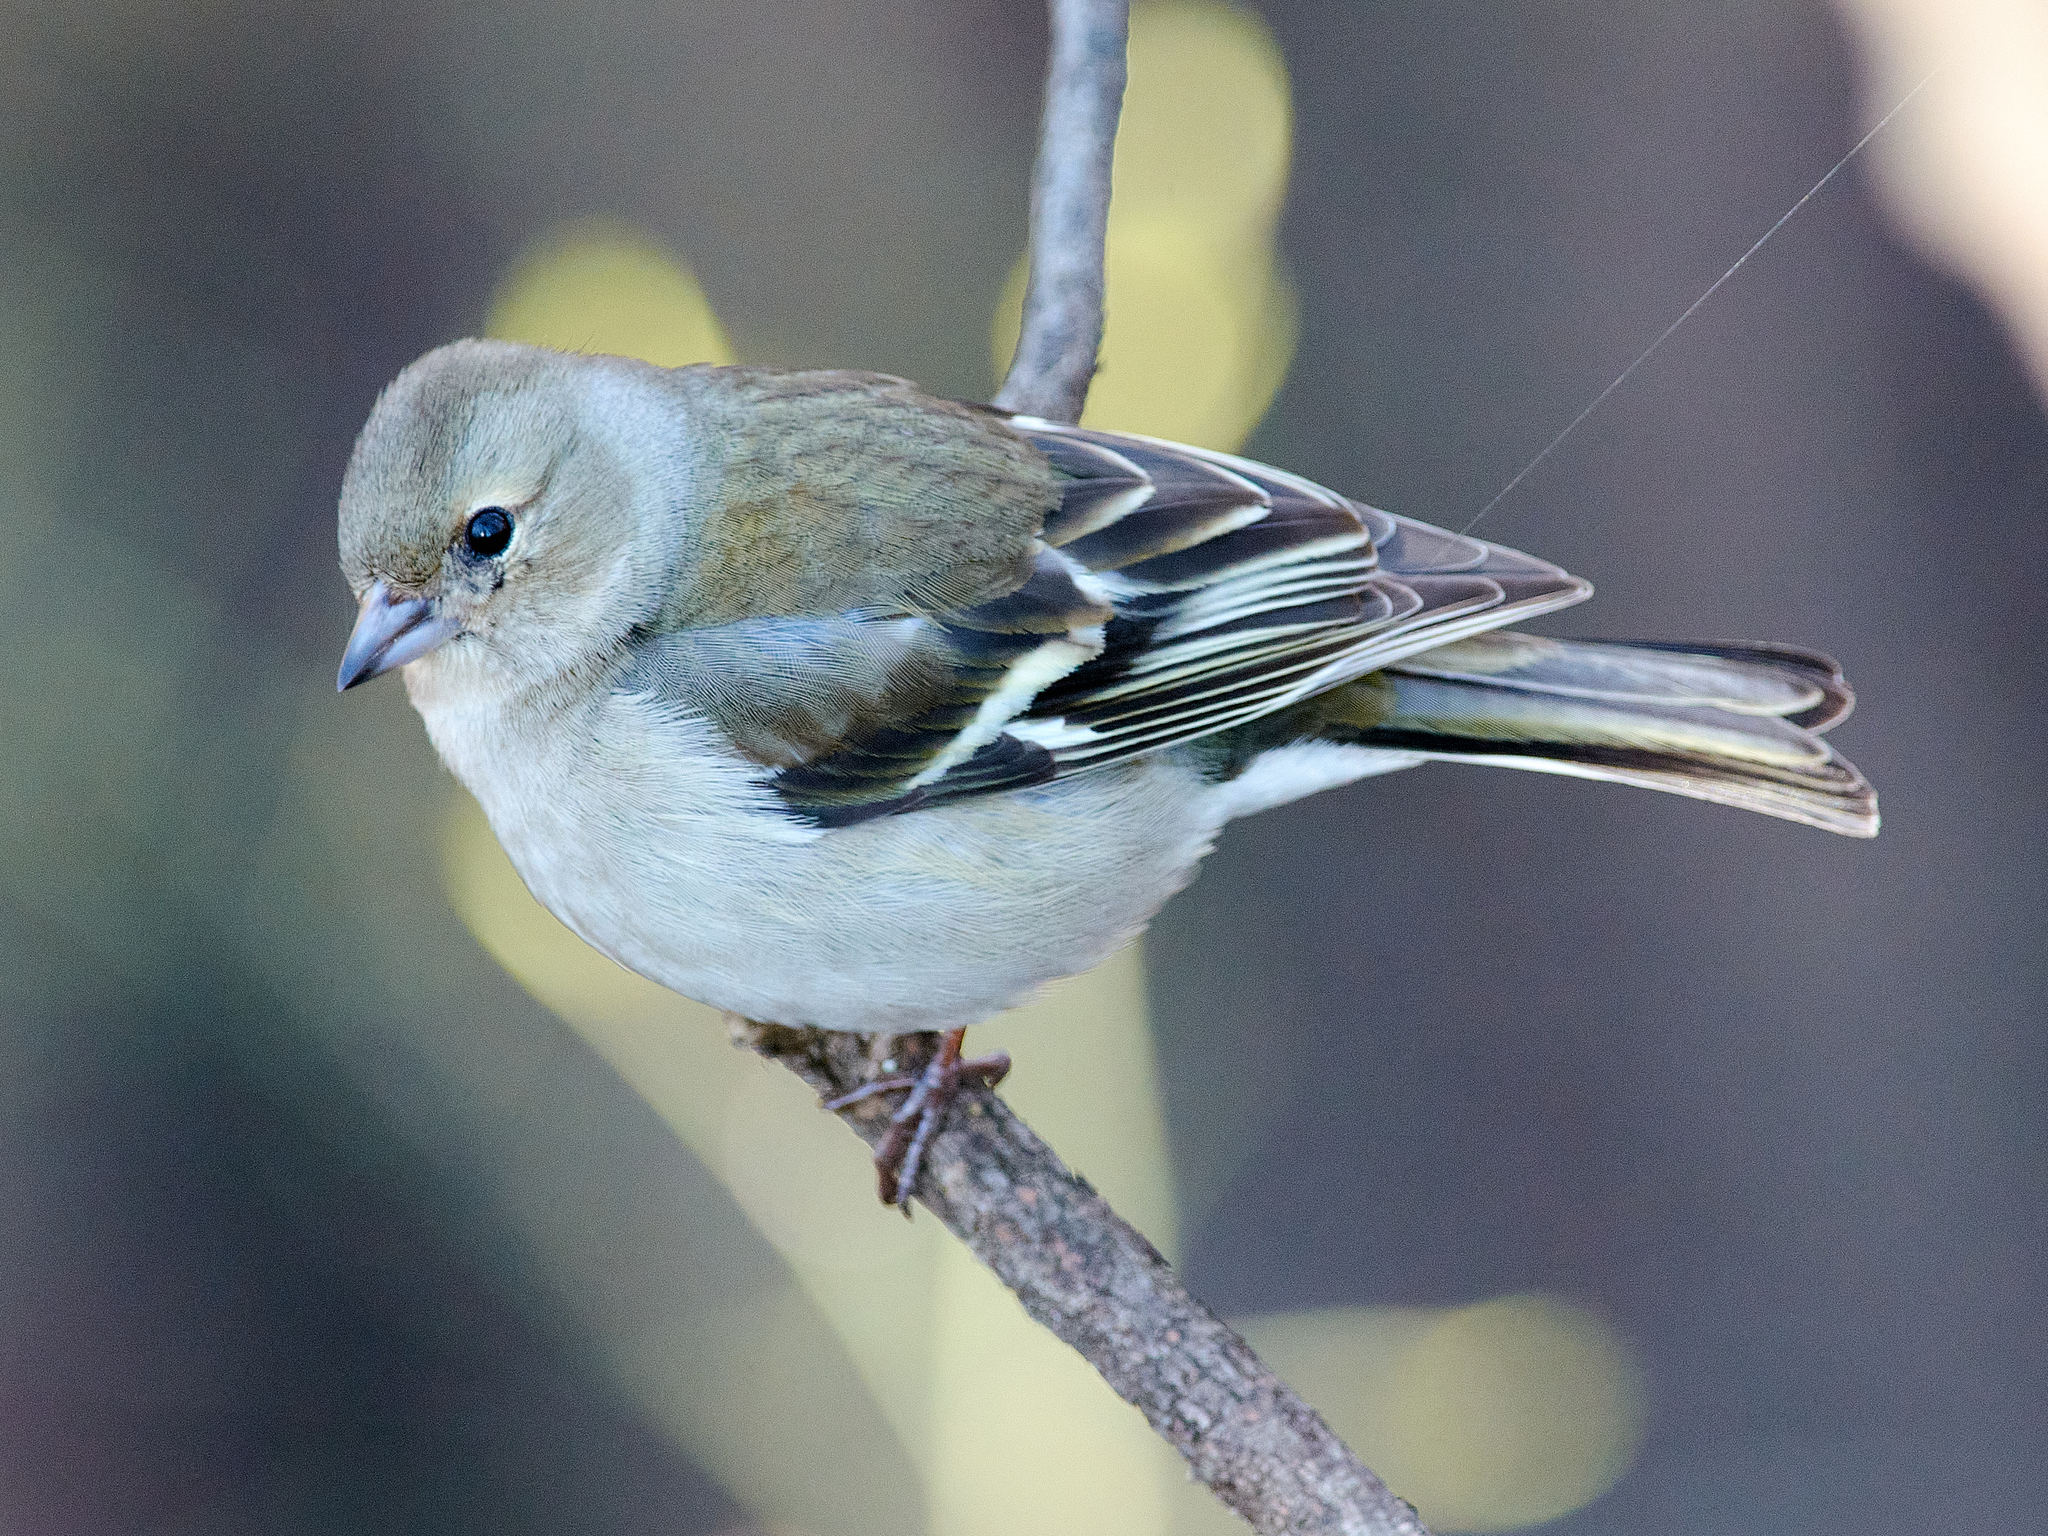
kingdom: Animalia
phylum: Chordata
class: Aves
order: Passeriformes
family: Fringillidae
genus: Fringilla
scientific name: Fringilla coelebs
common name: Common chaffinch
